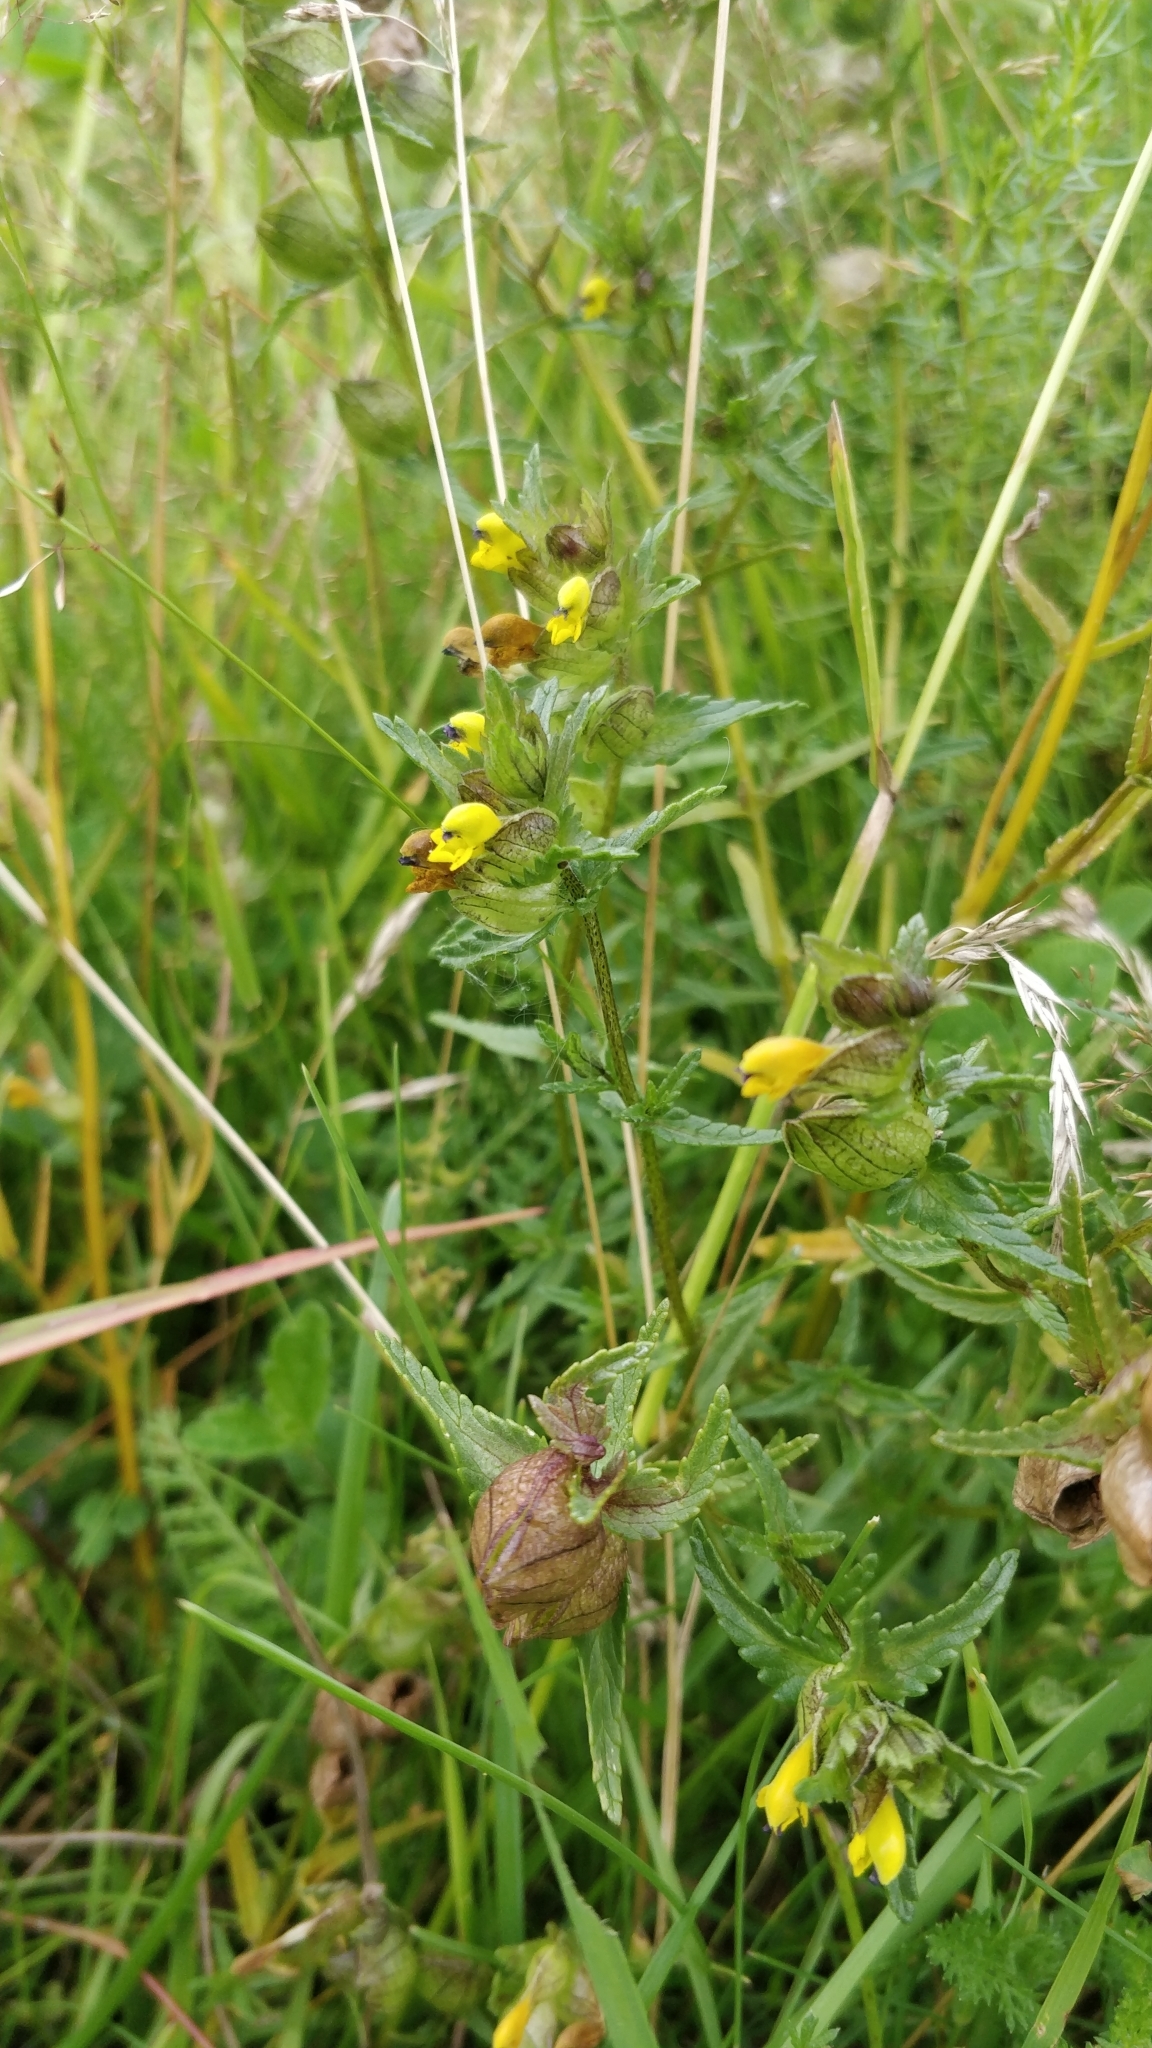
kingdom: Plantae
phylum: Tracheophyta
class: Magnoliopsida
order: Lamiales
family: Orobanchaceae
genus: Rhinanthus
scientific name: Rhinanthus minor
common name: Yellow-rattle
